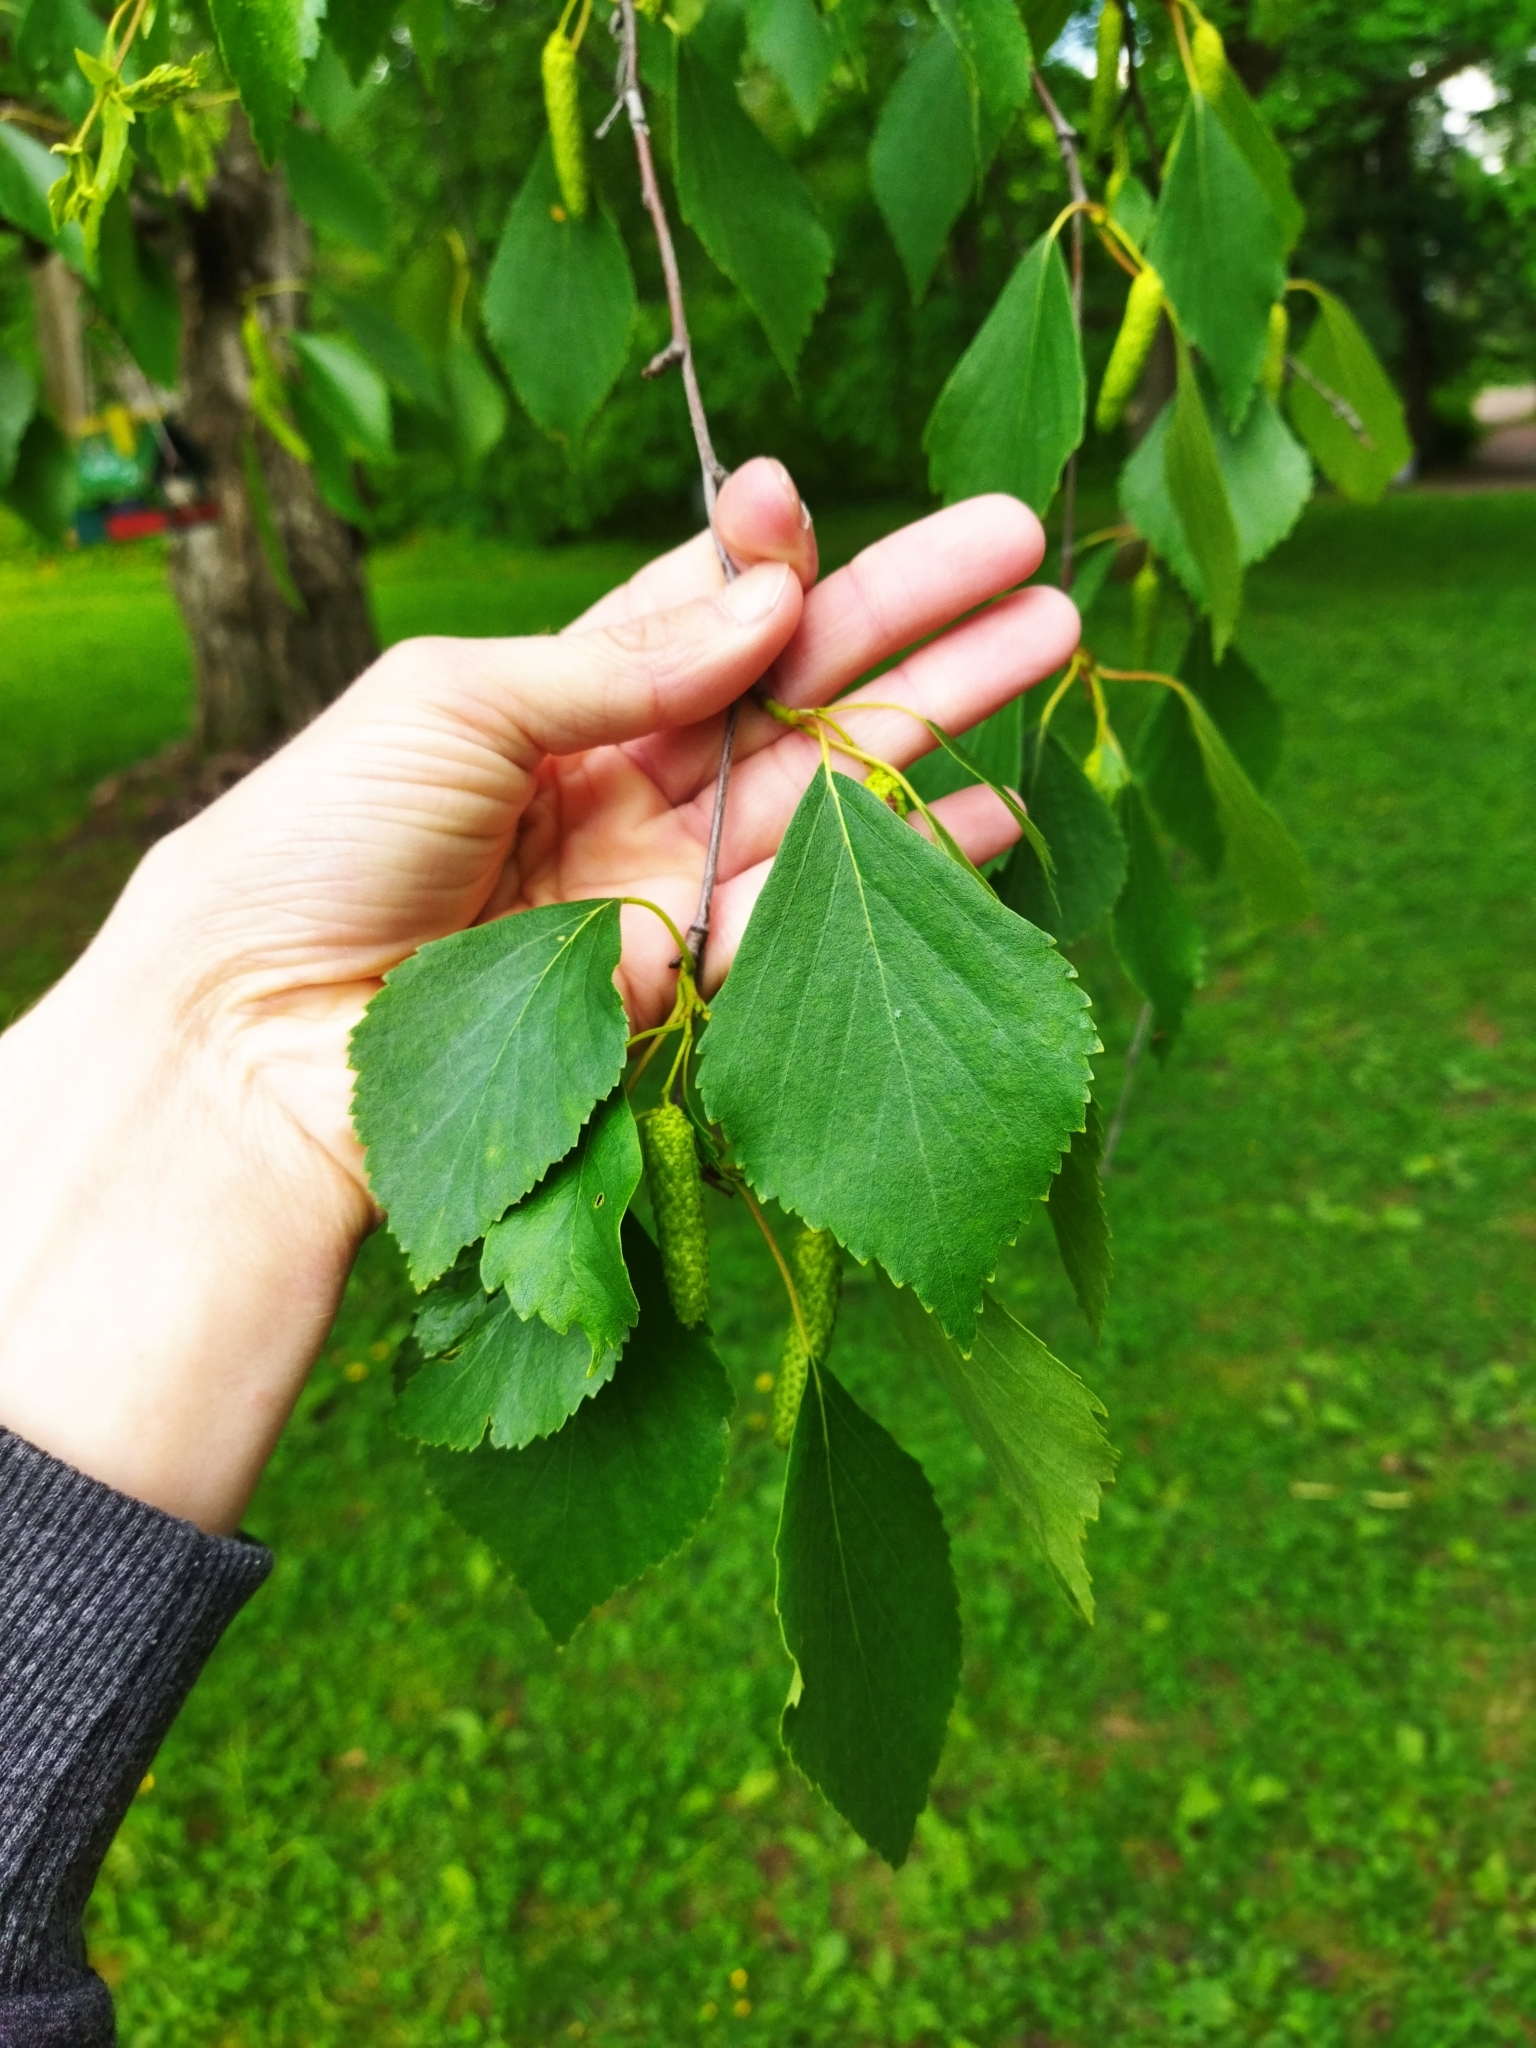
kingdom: Plantae
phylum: Tracheophyta
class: Magnoliopsida
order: Fagales
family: Betulaceae
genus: Betula
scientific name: Betula pendula
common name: Silver birch
